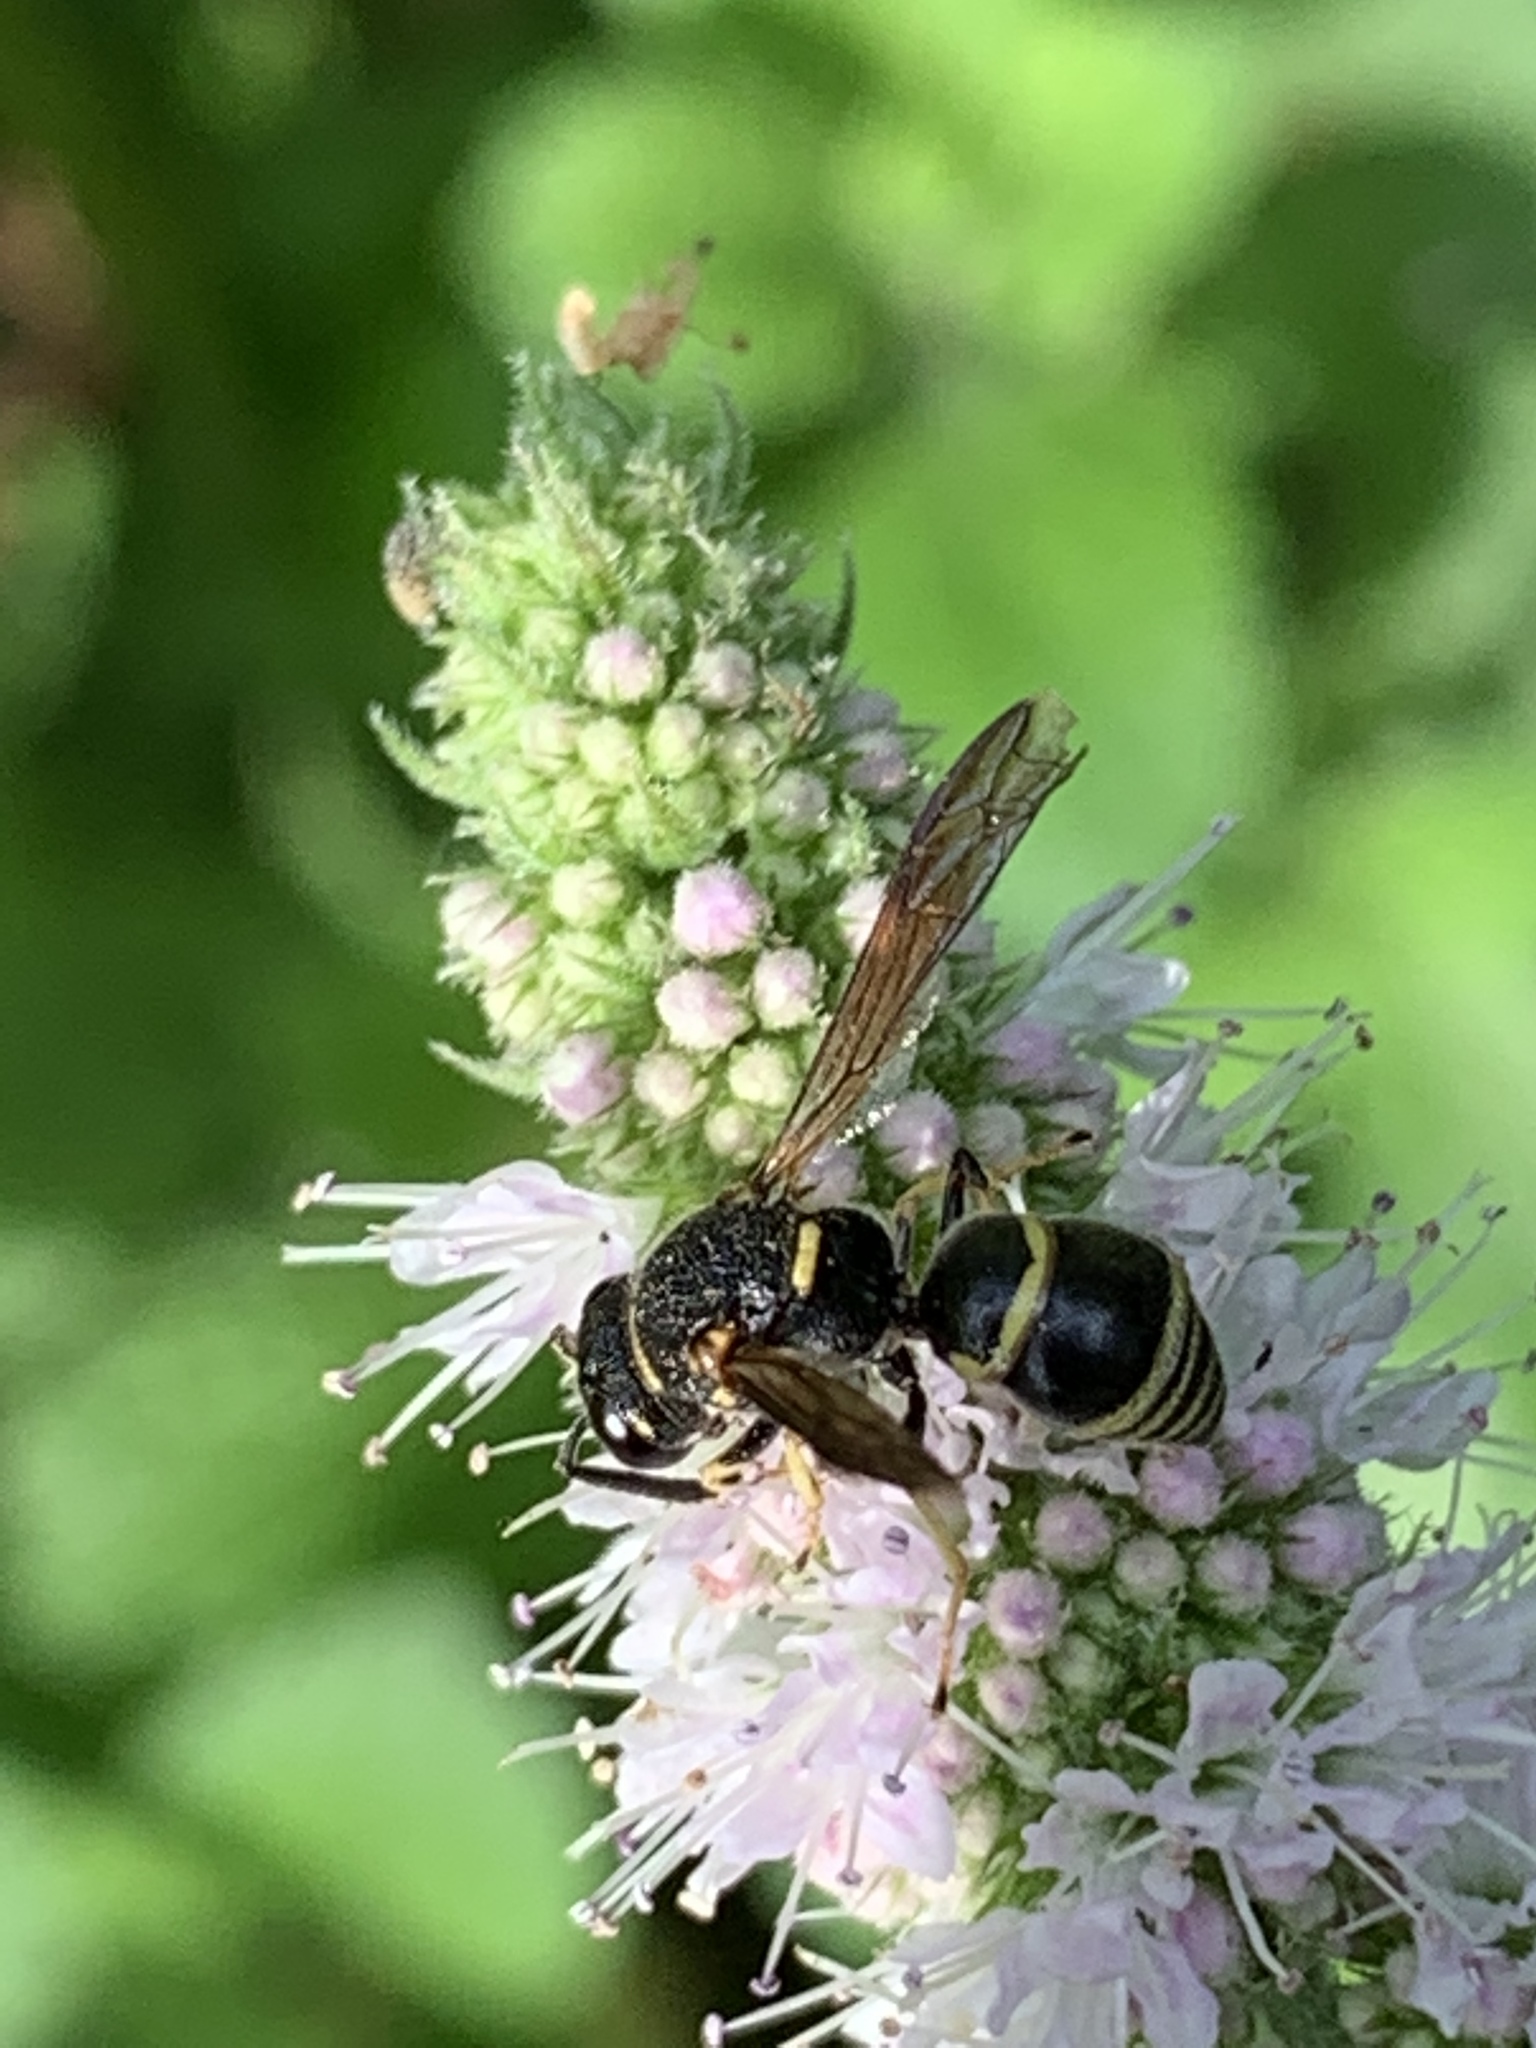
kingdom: Animalia
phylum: Arthropoda
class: Insecta
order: Hymenoptera
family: Eumenidae
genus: Euodynerus
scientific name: Euodynerus foraminatus
